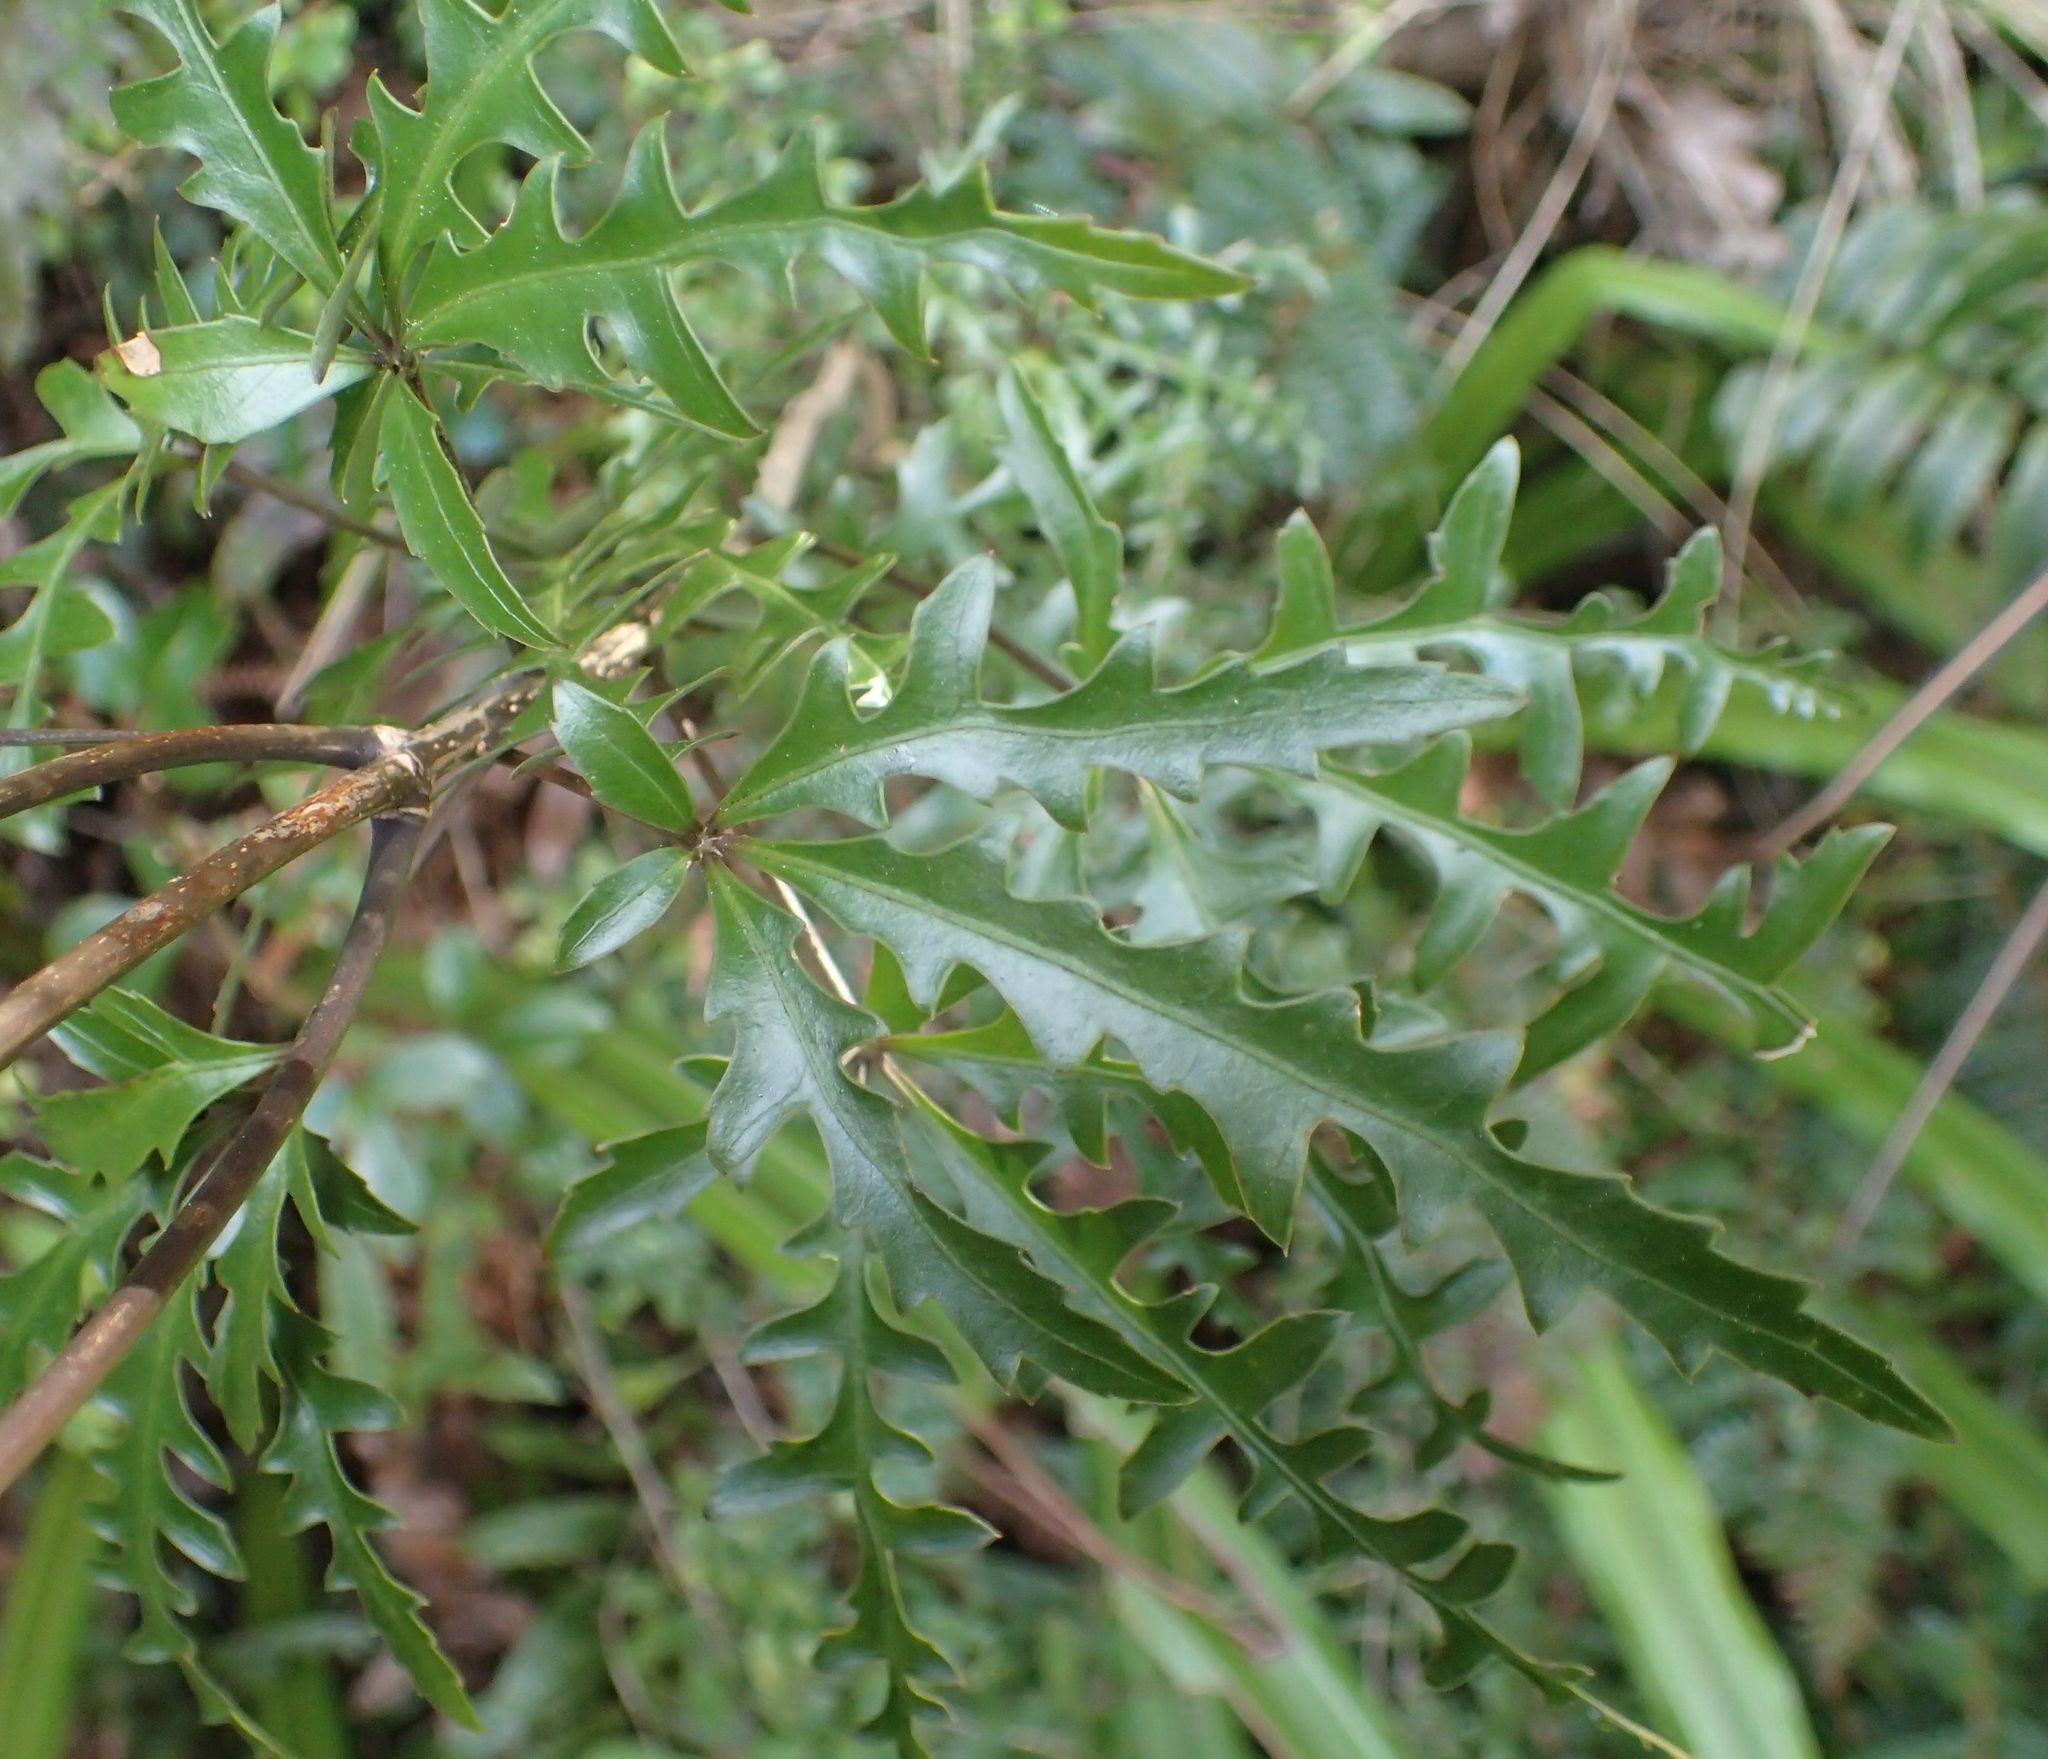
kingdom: Plantae
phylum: Tracheophyta
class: Magnoliopsida
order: Apiales
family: Araliaceae
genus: Raukaua
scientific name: Raukaua simplex
